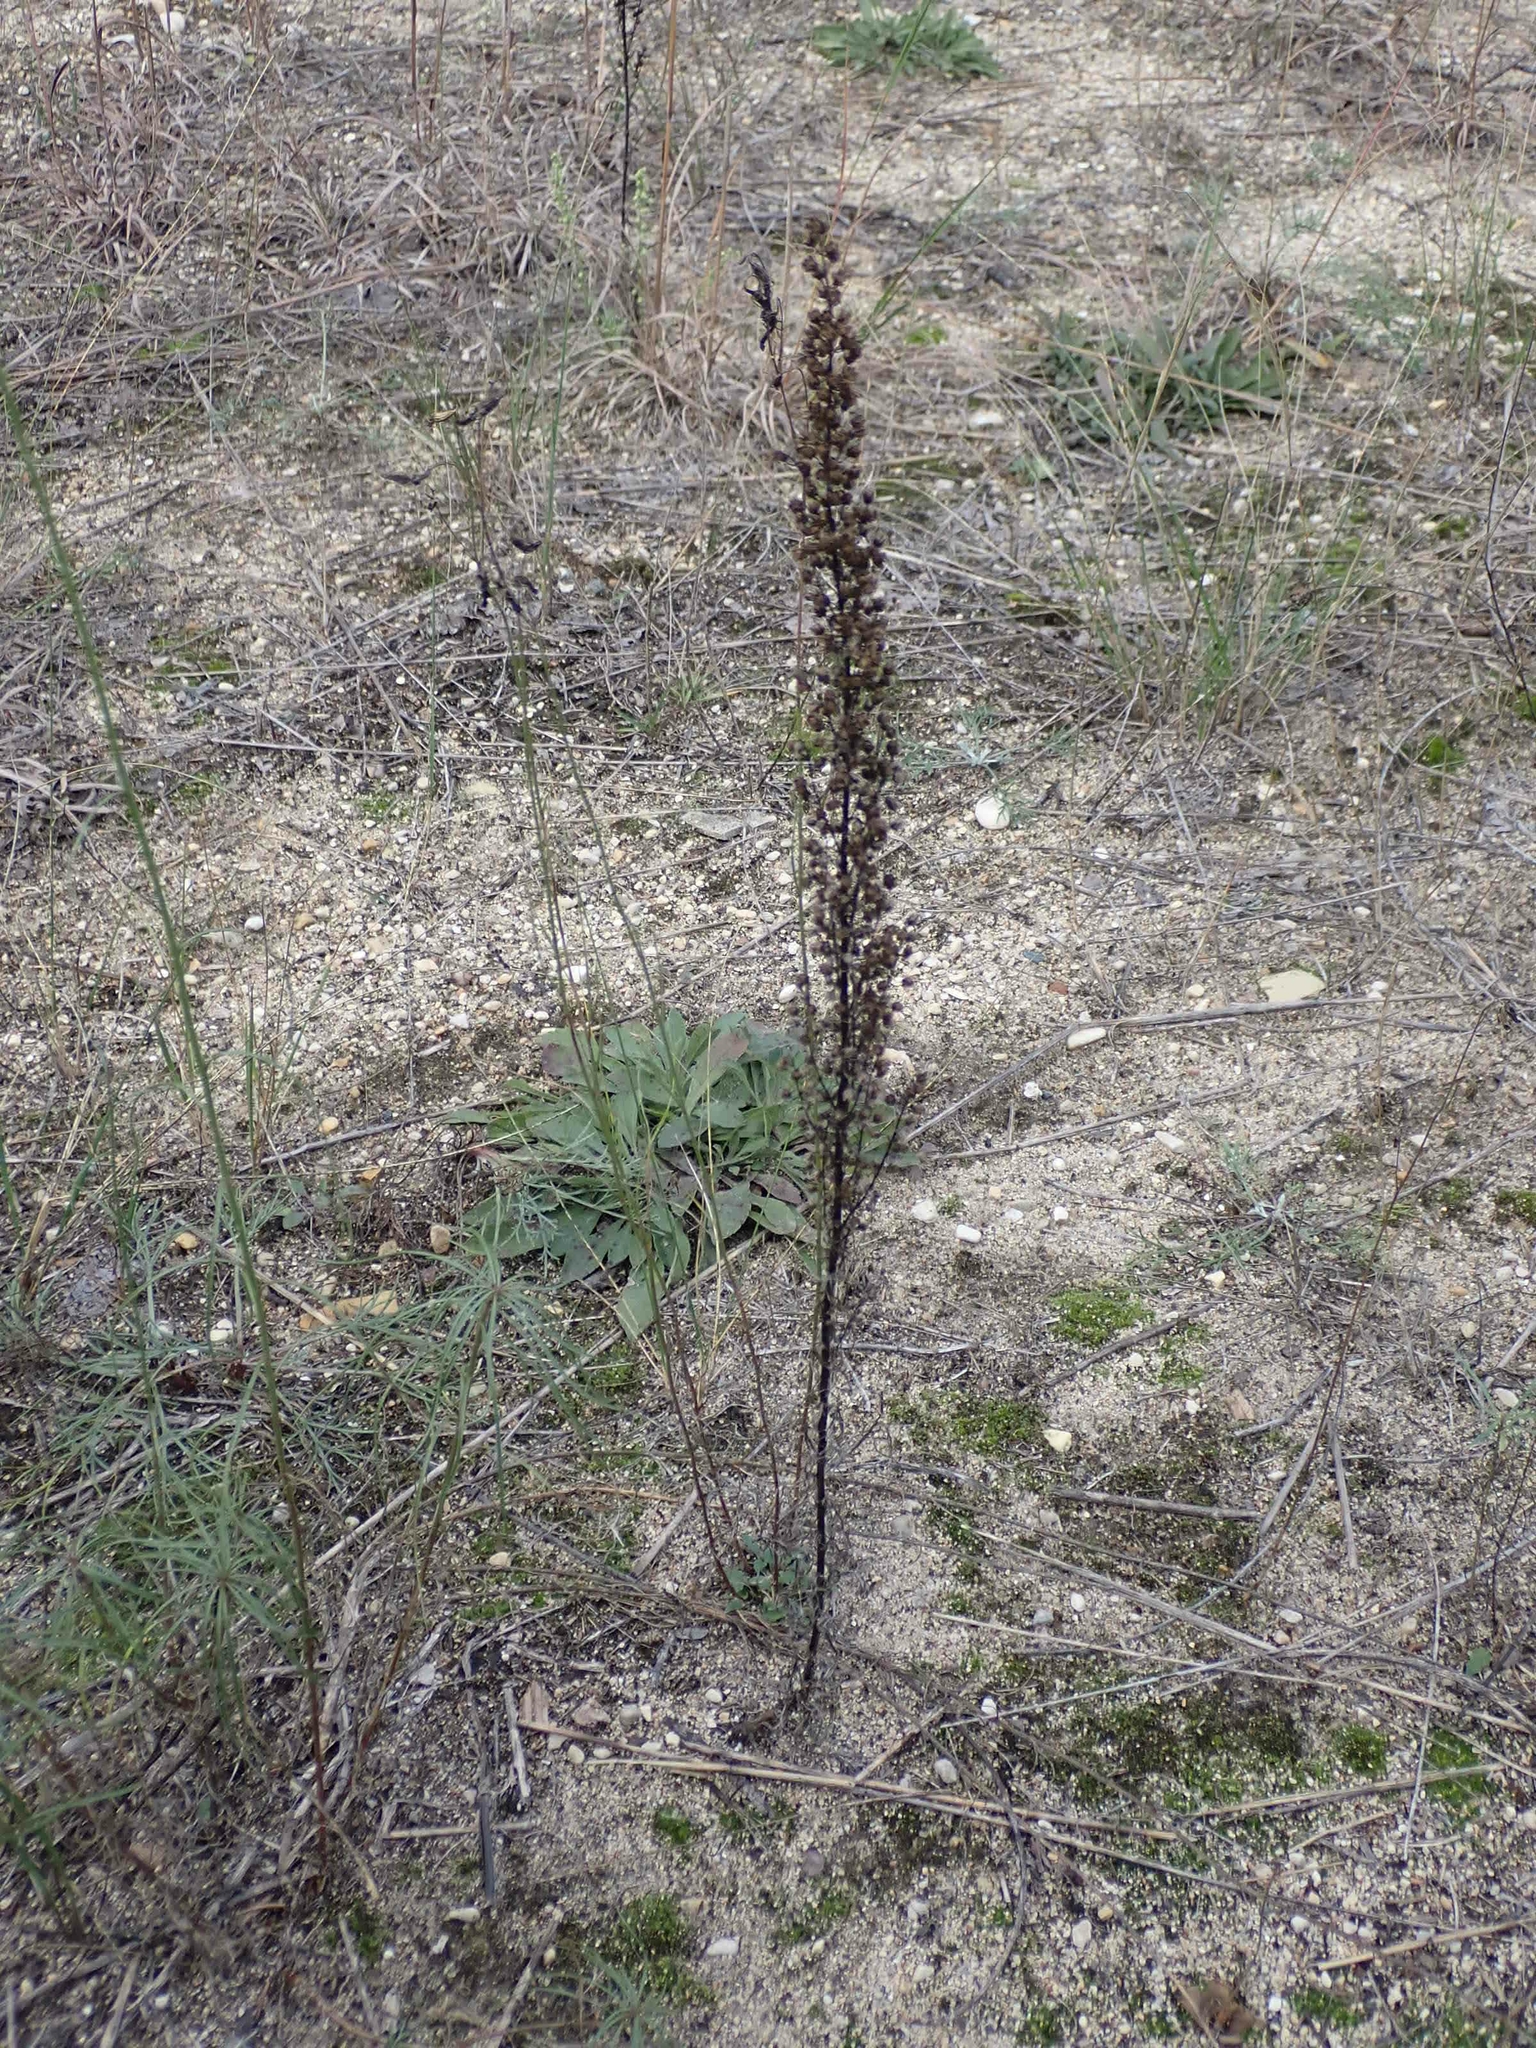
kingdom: Plantae
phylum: Tracheophyta
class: Magnoliopsida
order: Asterales
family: Asteraceae
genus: Artemisia
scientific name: Artemisia campestris
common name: Field wormwood
